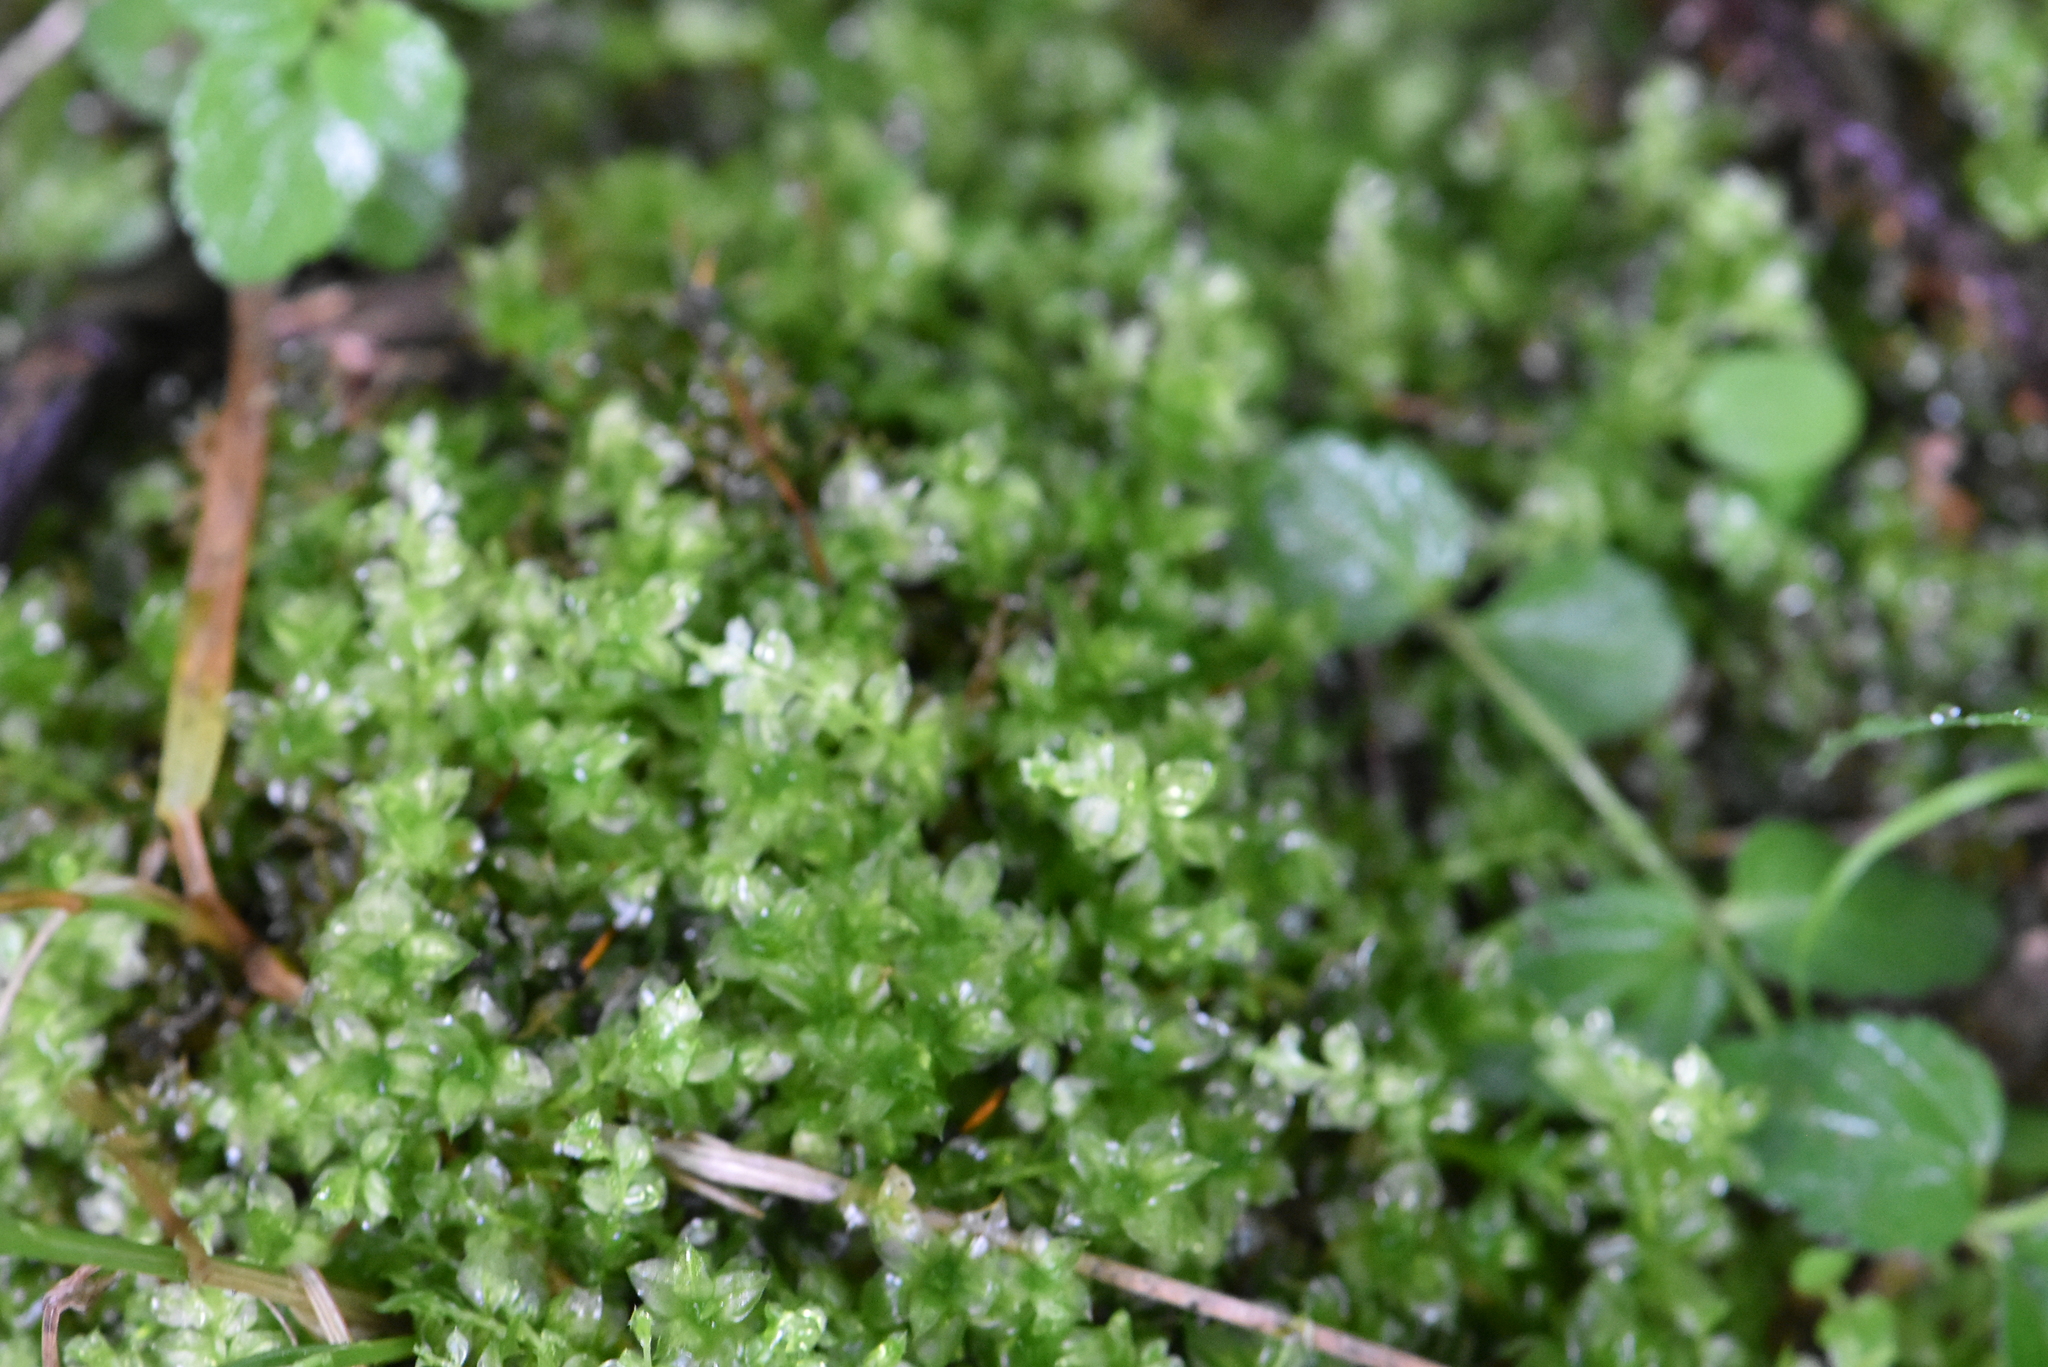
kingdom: Plantae
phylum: Bryophyta
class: Bryopsida
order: Bryales
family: Mniaceae
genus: Plagiomnium
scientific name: Plagiomnium
